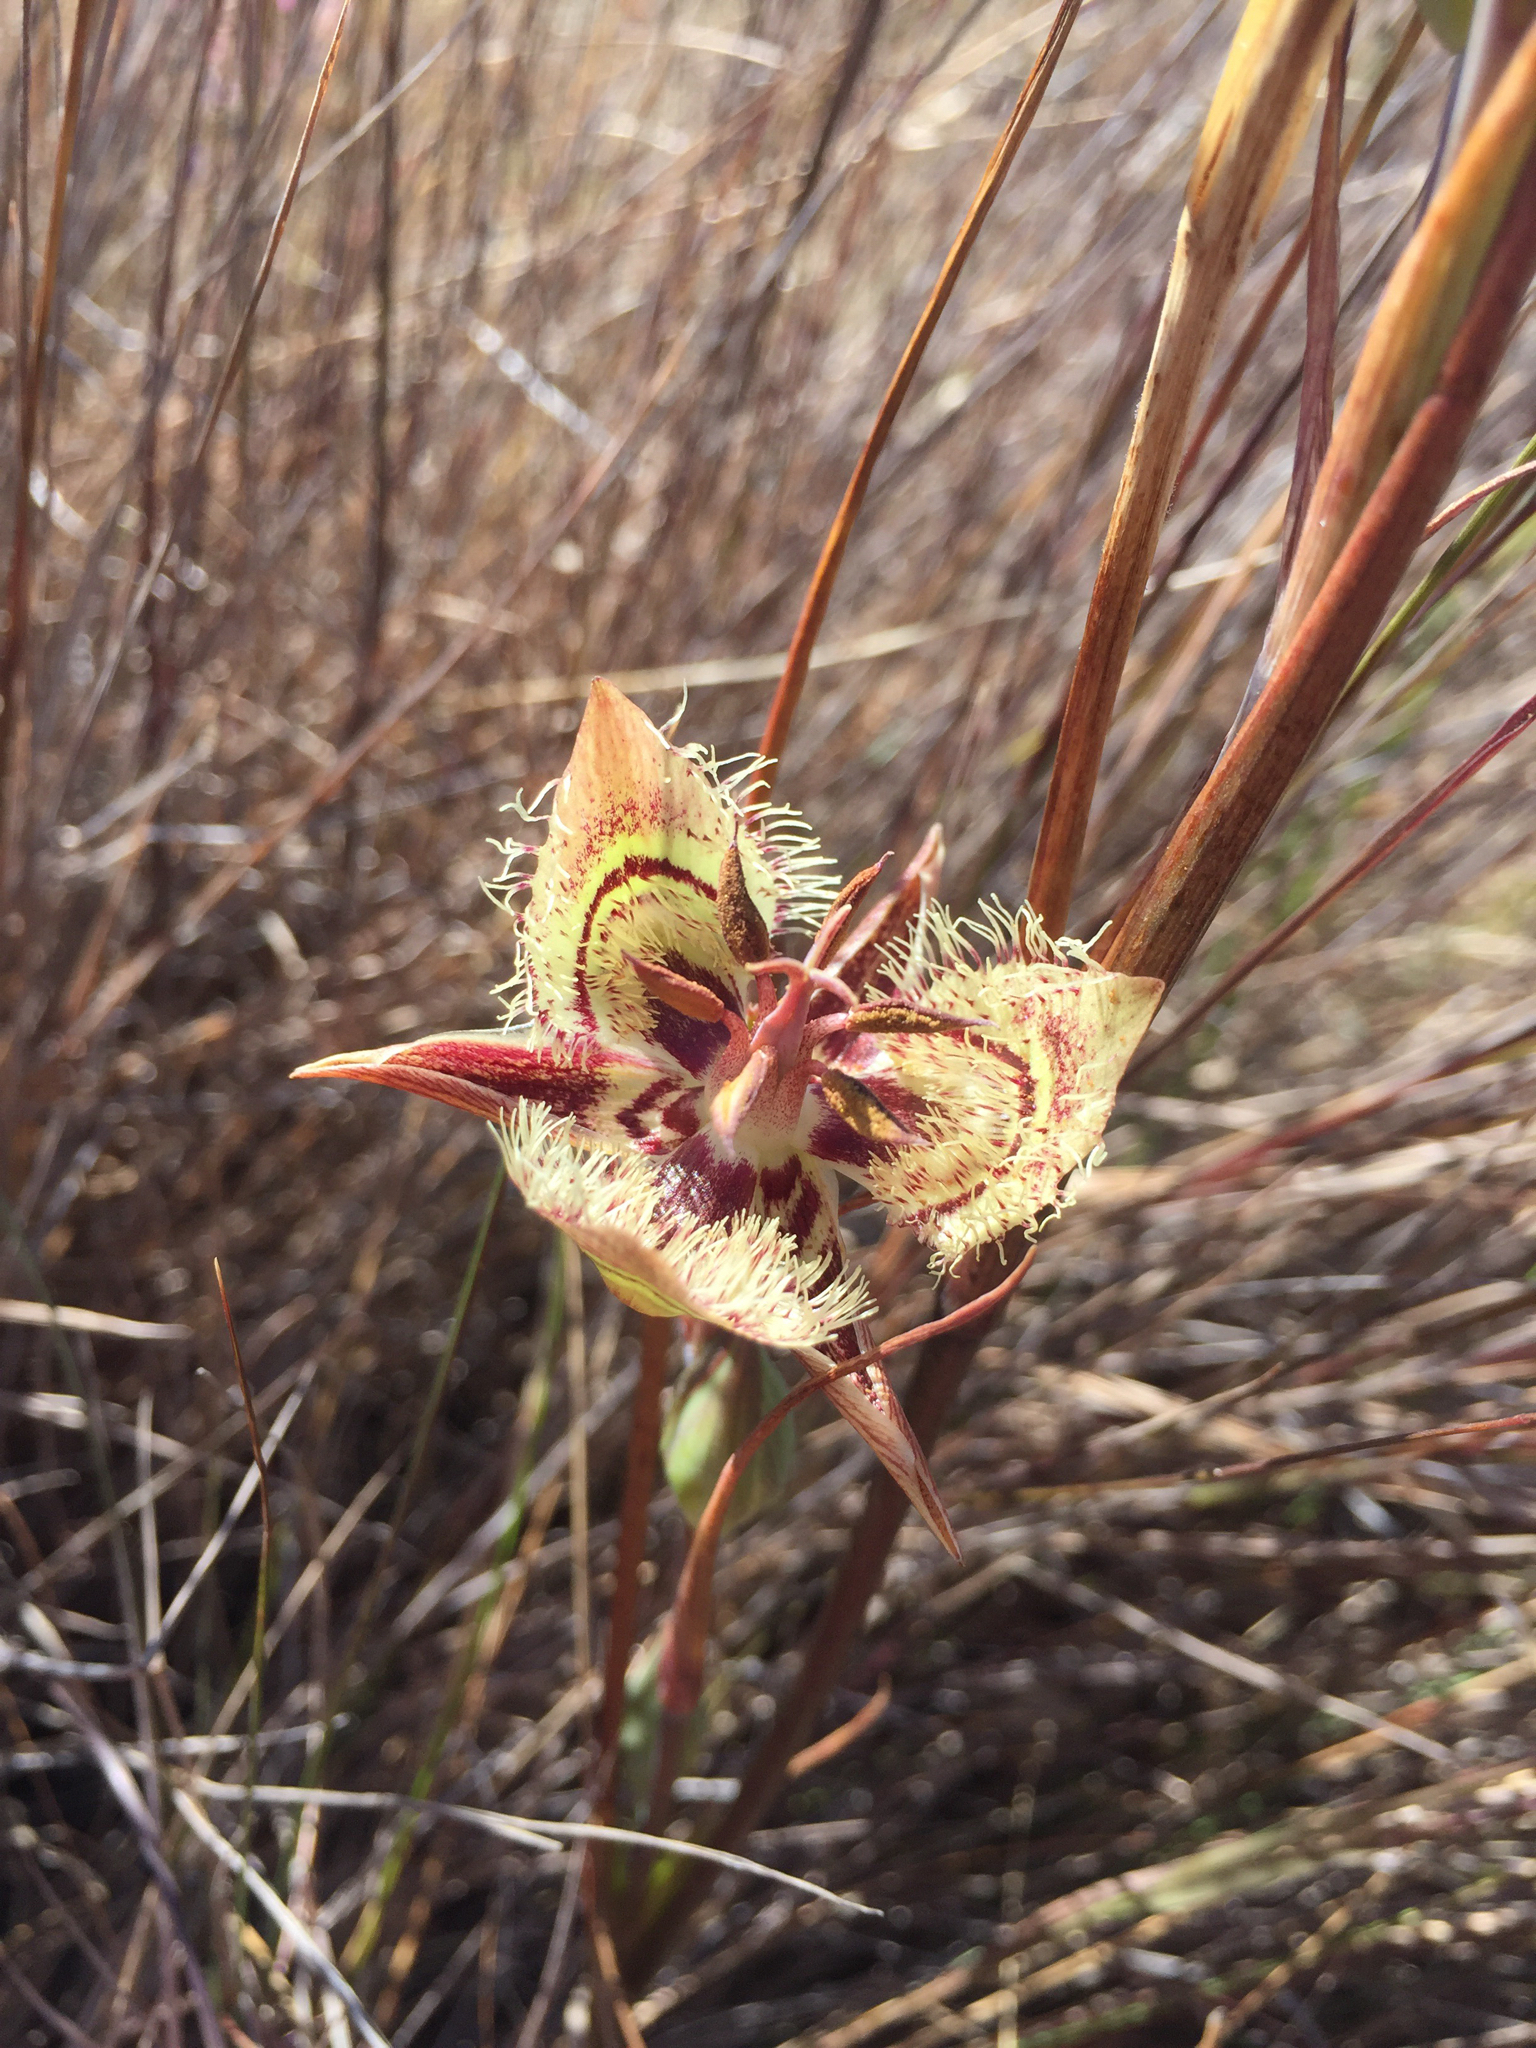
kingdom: Plantae
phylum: Tracheophyta
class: Liliopsida
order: Liliales
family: Liliaceae
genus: Calochortus
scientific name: Calochortus tiburonensis
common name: Tiburon mariposa-lily
